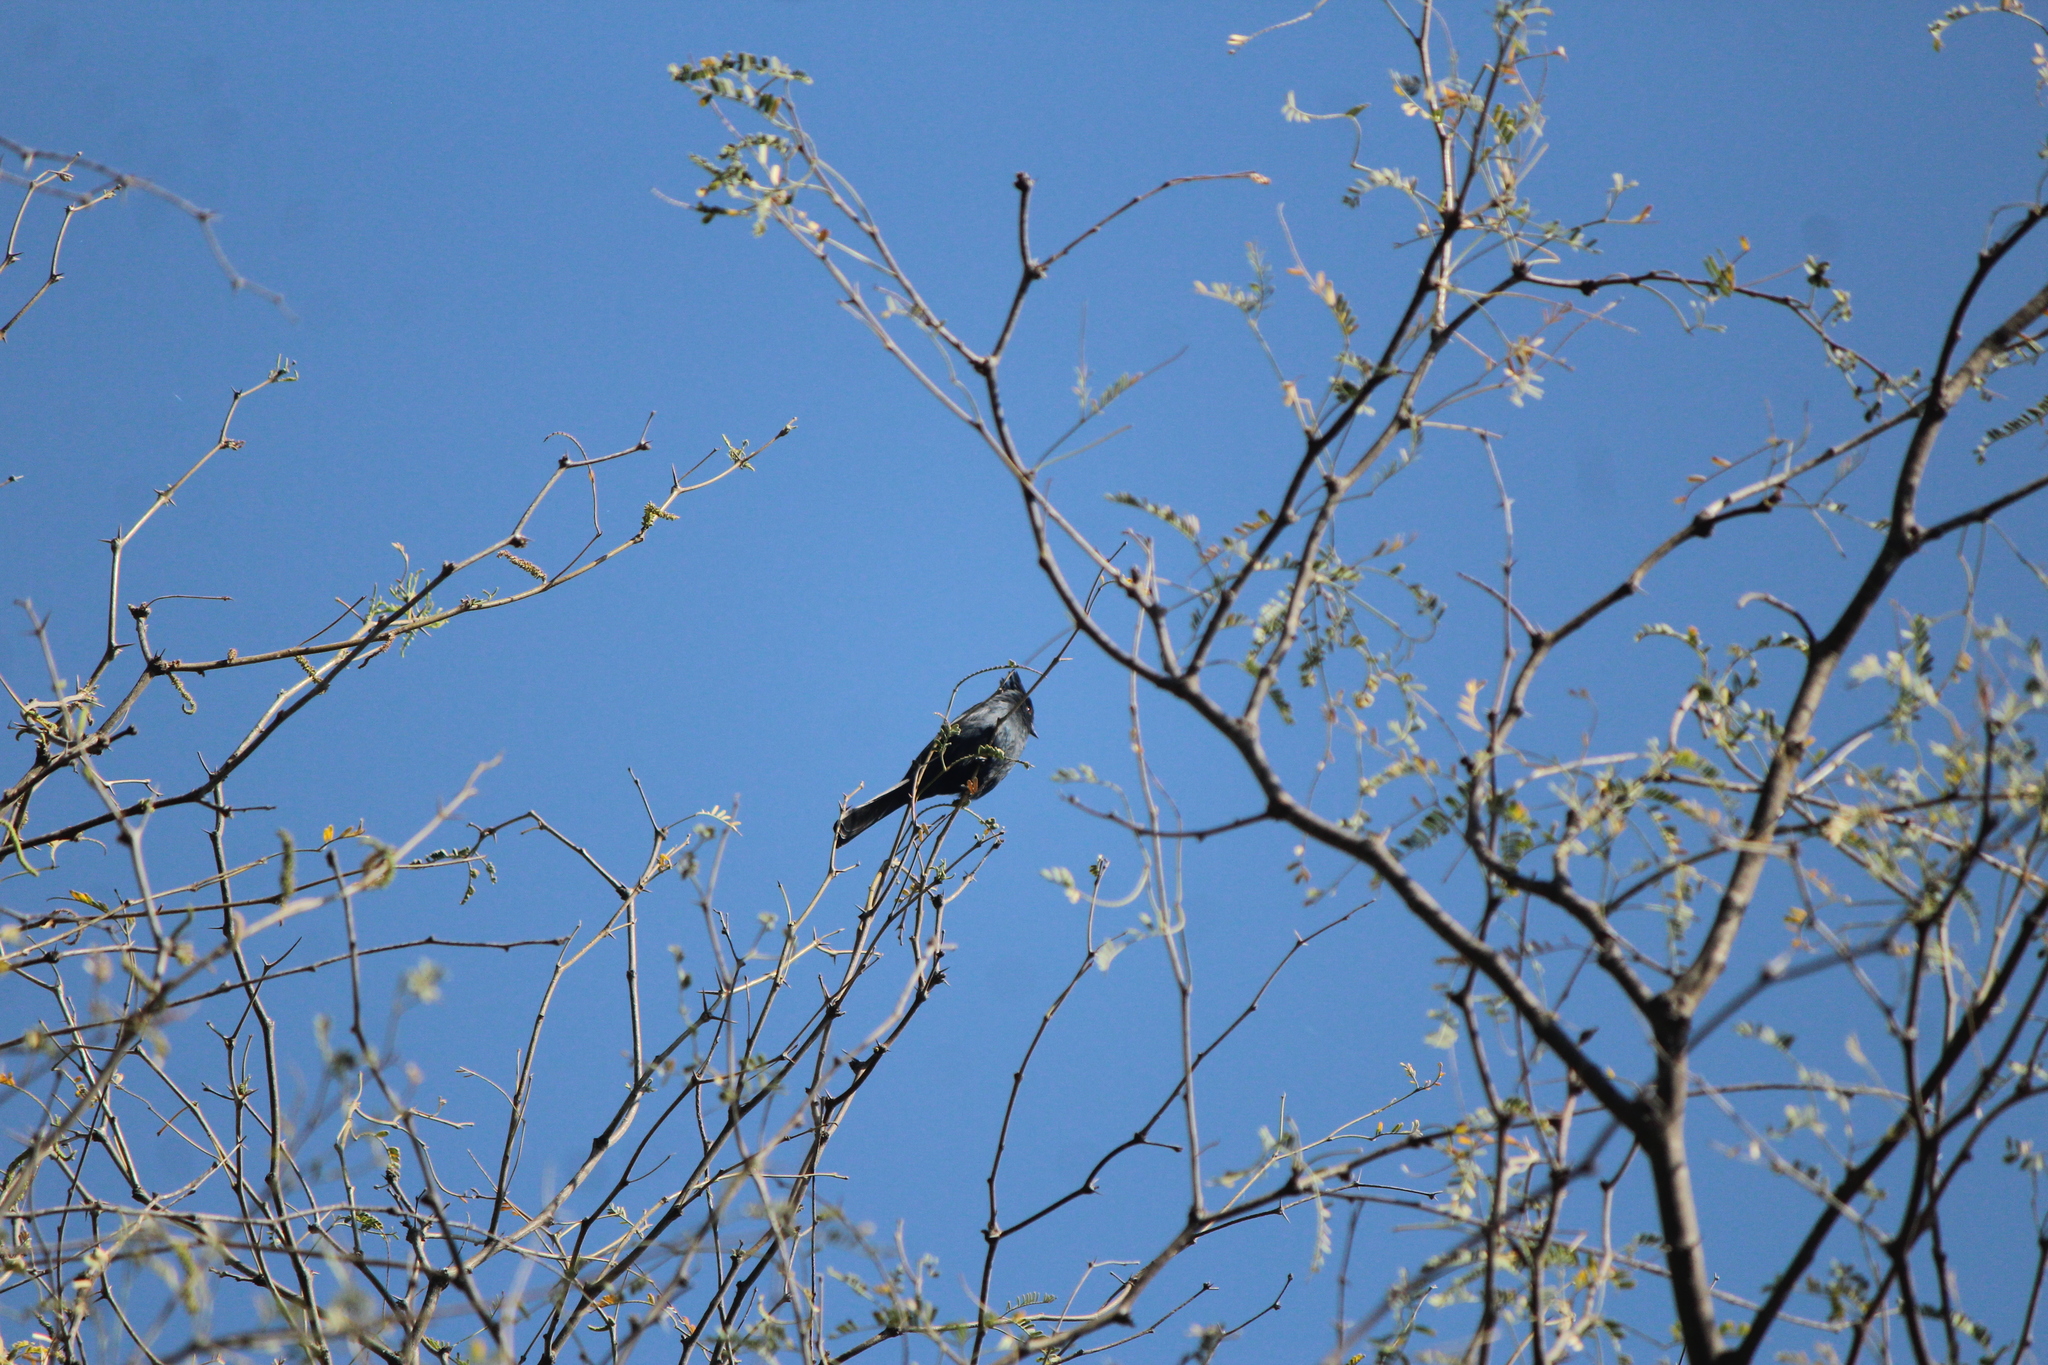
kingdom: Animalia
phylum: Chordata
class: Aves
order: Passeriformes
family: Ptilogonatidae
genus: Phainopepla
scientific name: Phainopepla nitens
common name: Phainopepla
